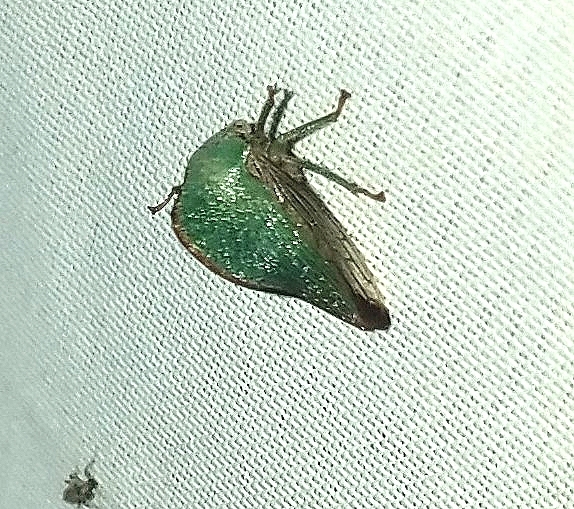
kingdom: Animalia
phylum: Arthropoda
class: Insecta
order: Hemiptera
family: Membracidae
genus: Archasia
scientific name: Archasia pallida
